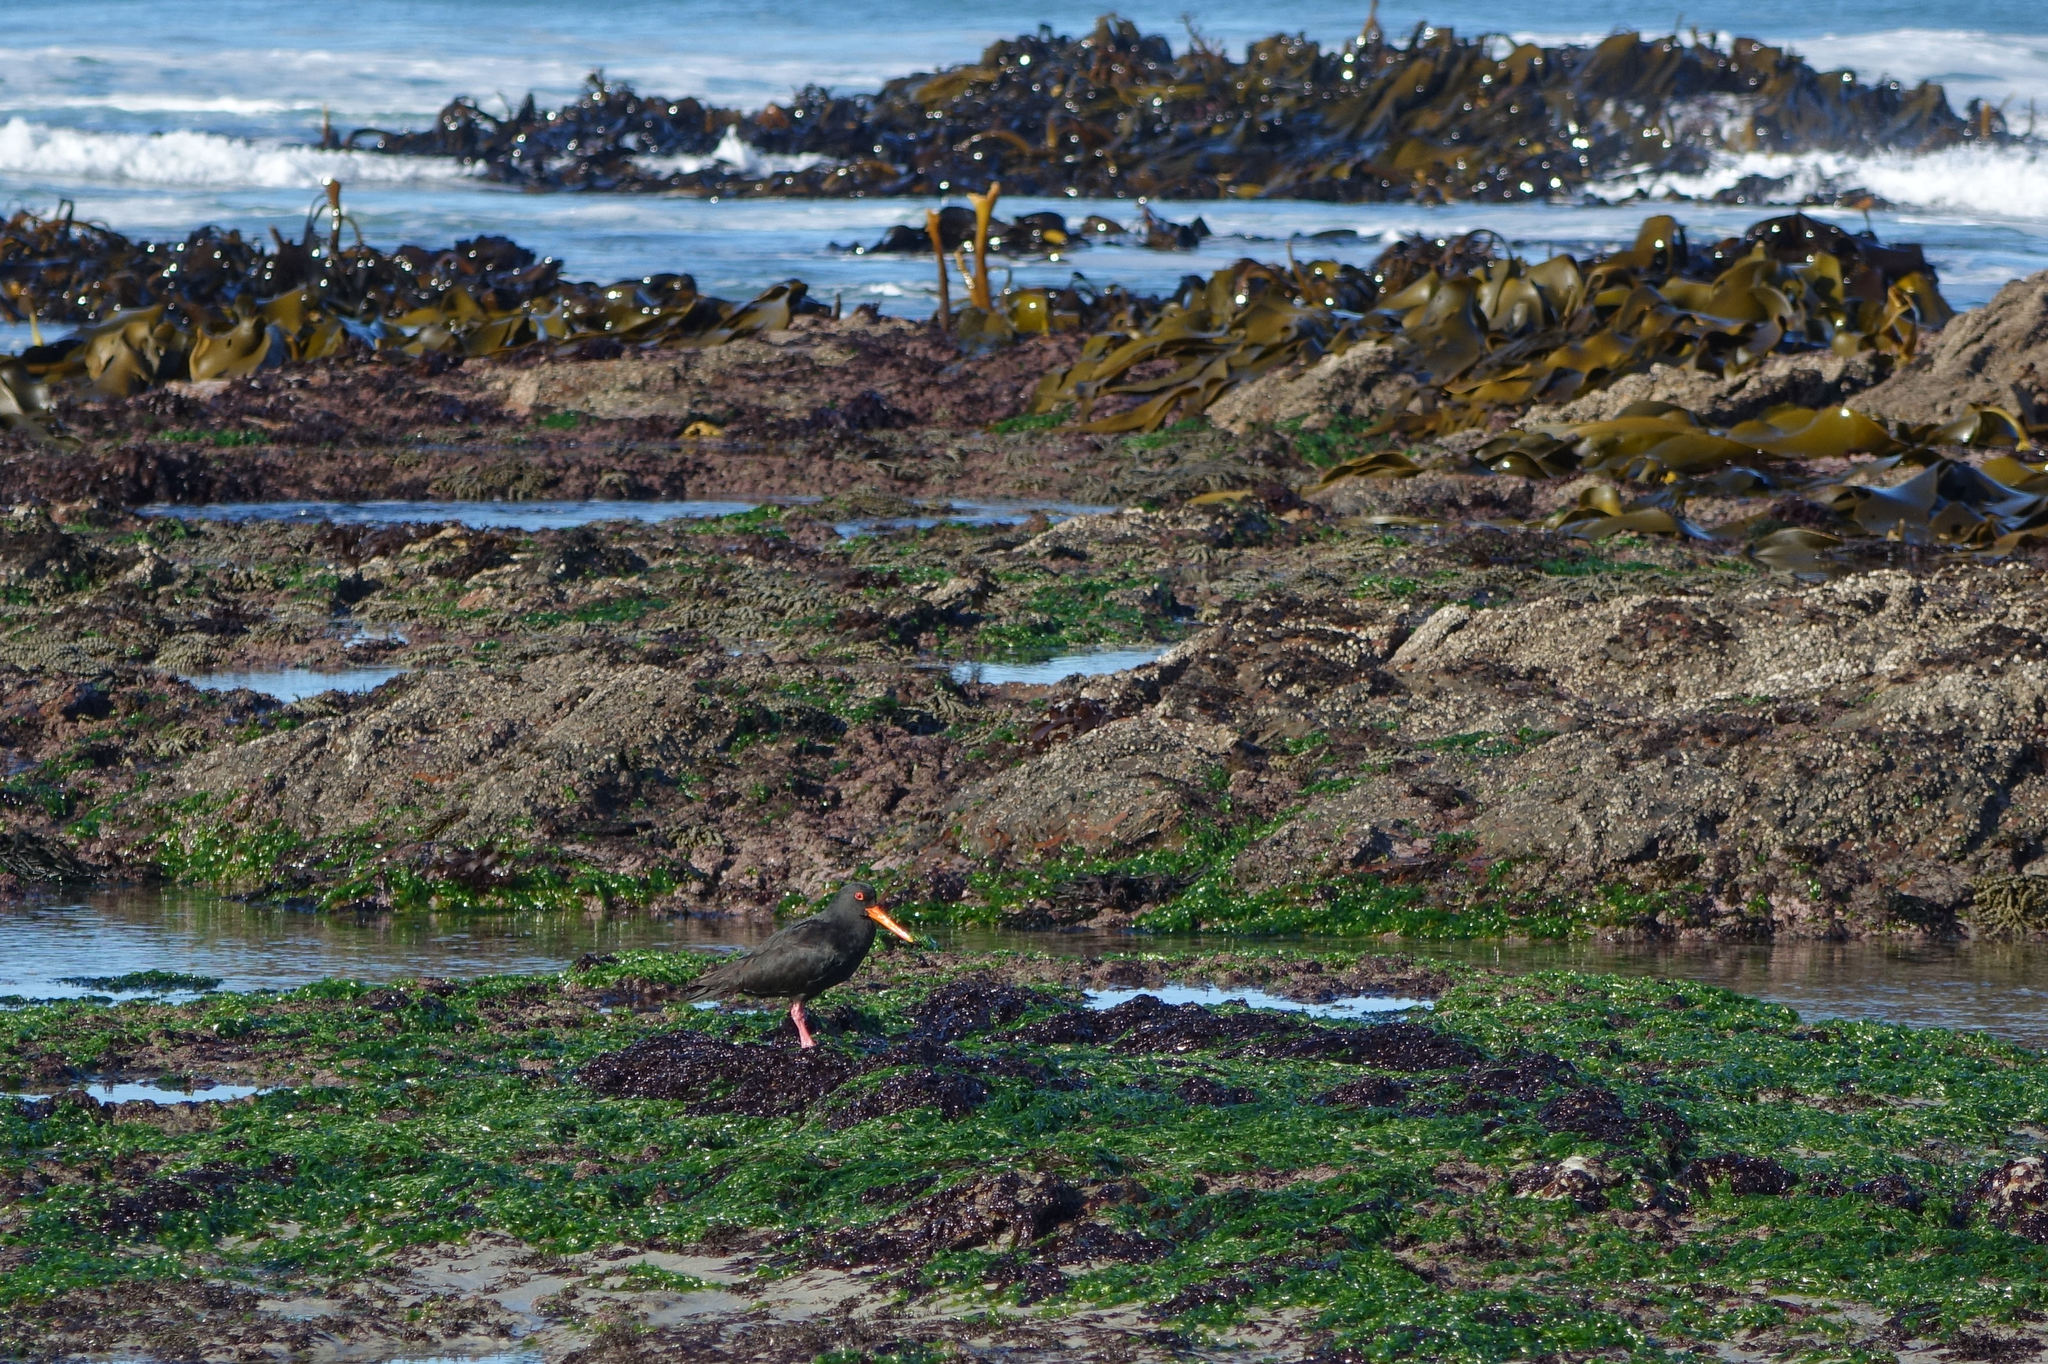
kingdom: Animalia
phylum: Chordata
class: Aves
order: Charadriiformes
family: Haematopodidae
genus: Haematopus
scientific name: Haematopus unicolor
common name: Variable oystercatcher
